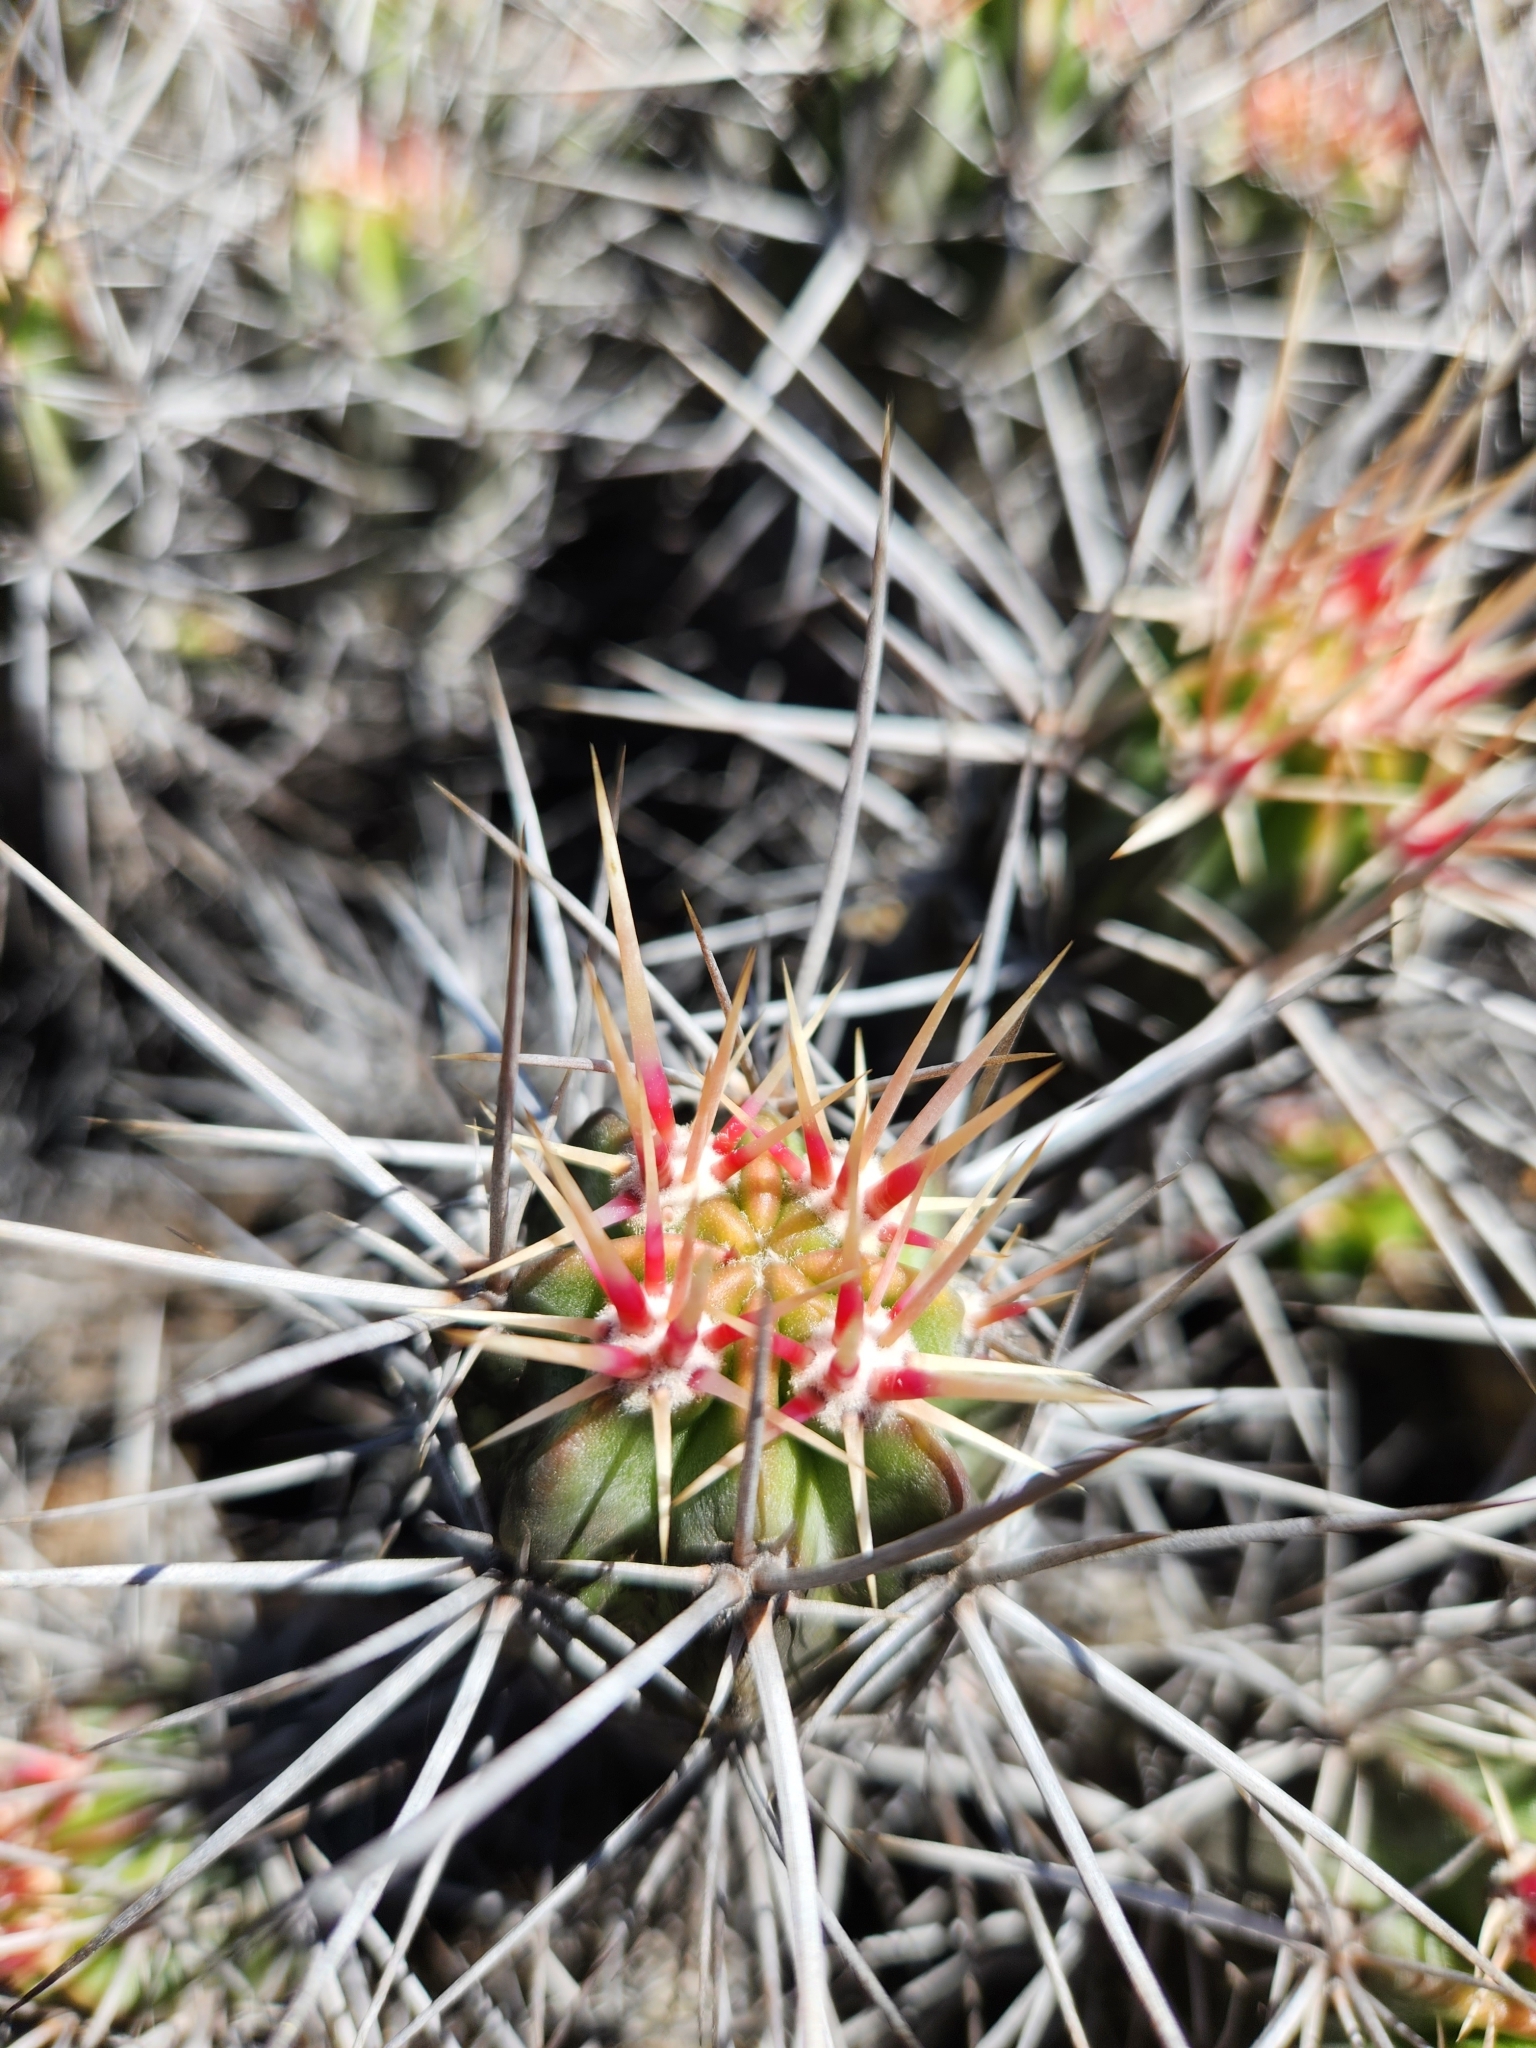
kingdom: Plantae
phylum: Tracheophyta
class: Magnoliopsida
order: Caryophyllales
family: Cactaceae
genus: Echinocereus
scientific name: Echinocereus maritimus
